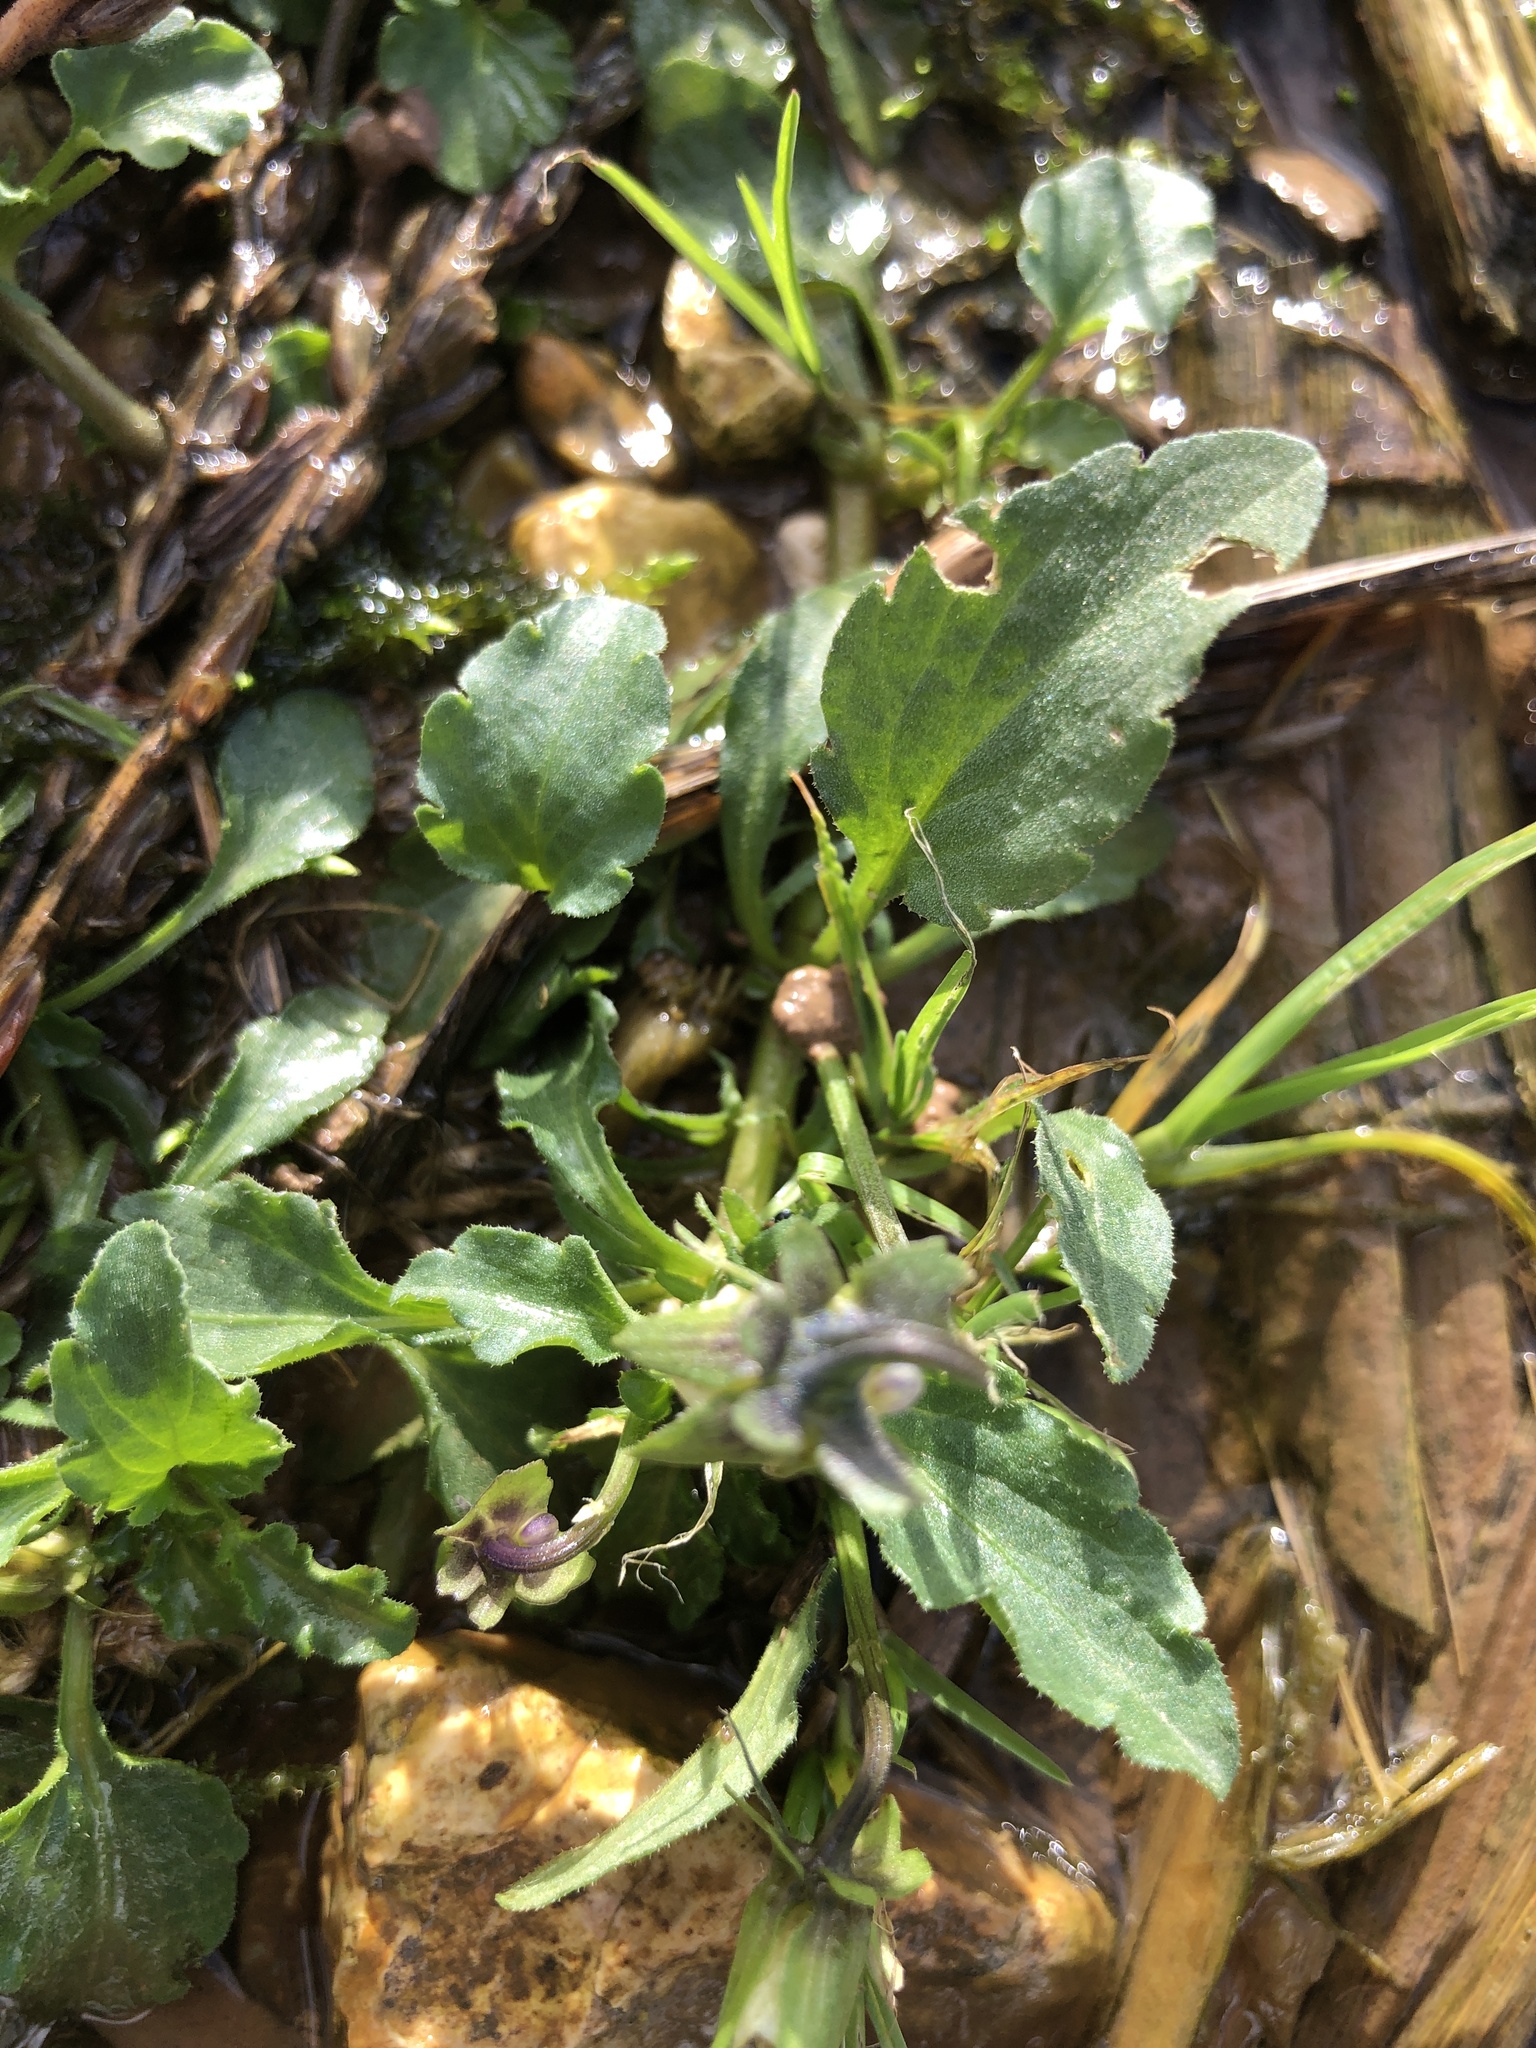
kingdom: Plantae
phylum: Tracheophyta
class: Magnoliopsida
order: Malpighiales
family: Violaceae
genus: Viola
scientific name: Viola arvensis
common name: Field pansy
